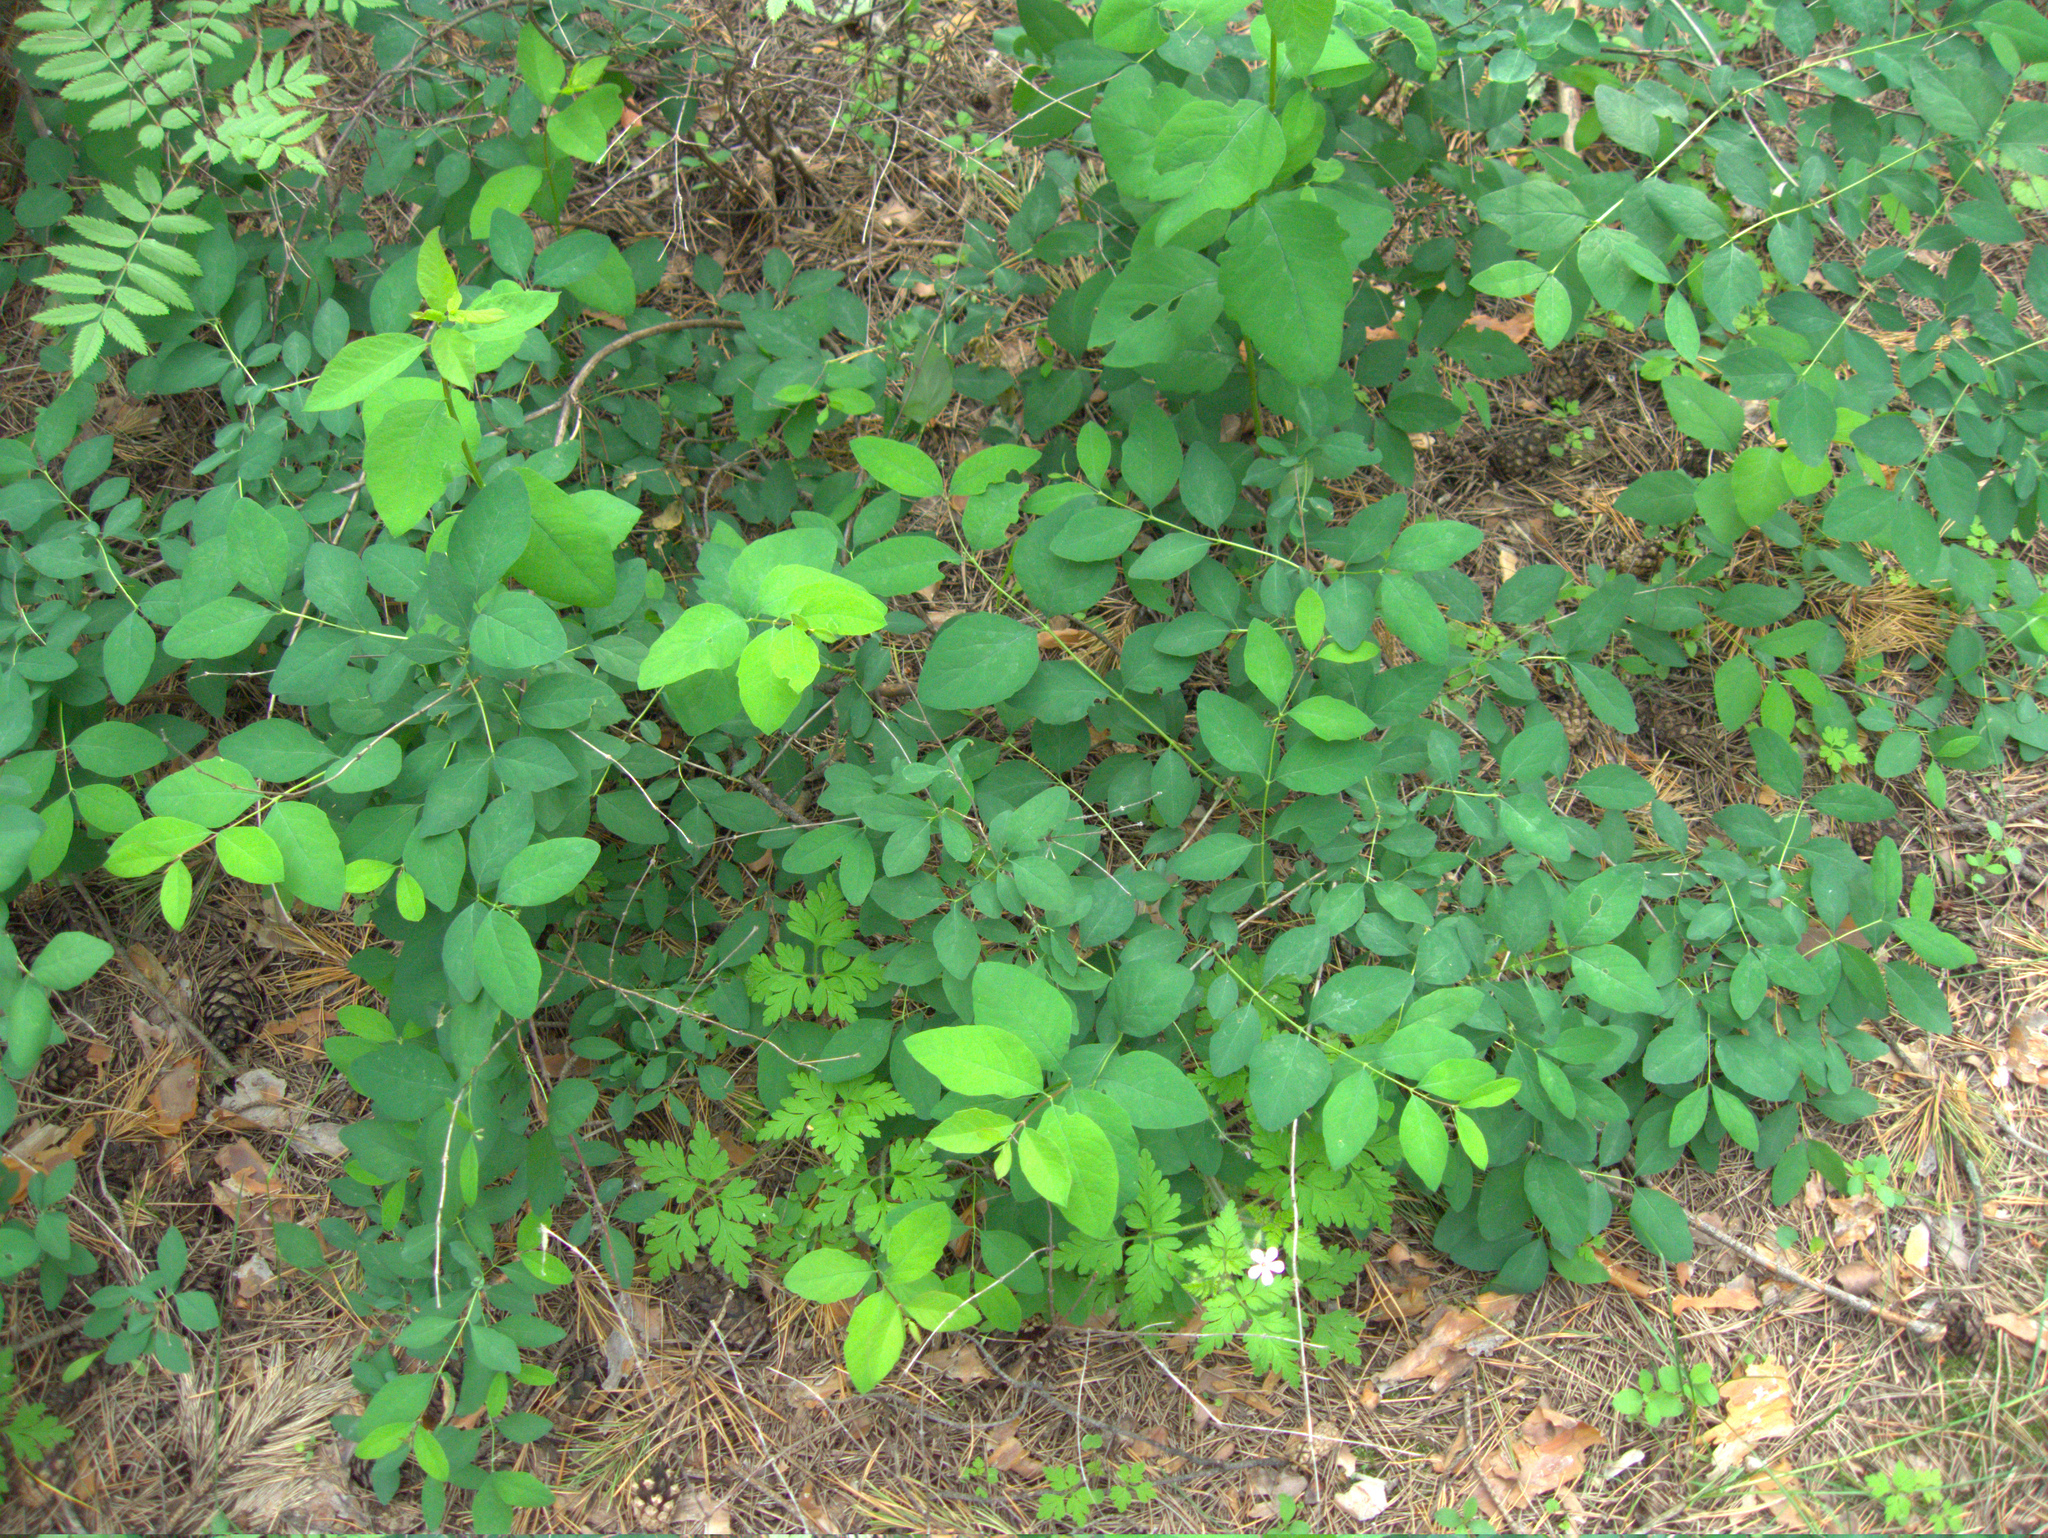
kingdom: Plantae
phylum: Tracheophyta
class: Magnoliopsida
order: Dipsacales
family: Caprifoliaceae
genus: Lonicera
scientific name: Lonicera tatarica
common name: Tatarian honeysuckle
